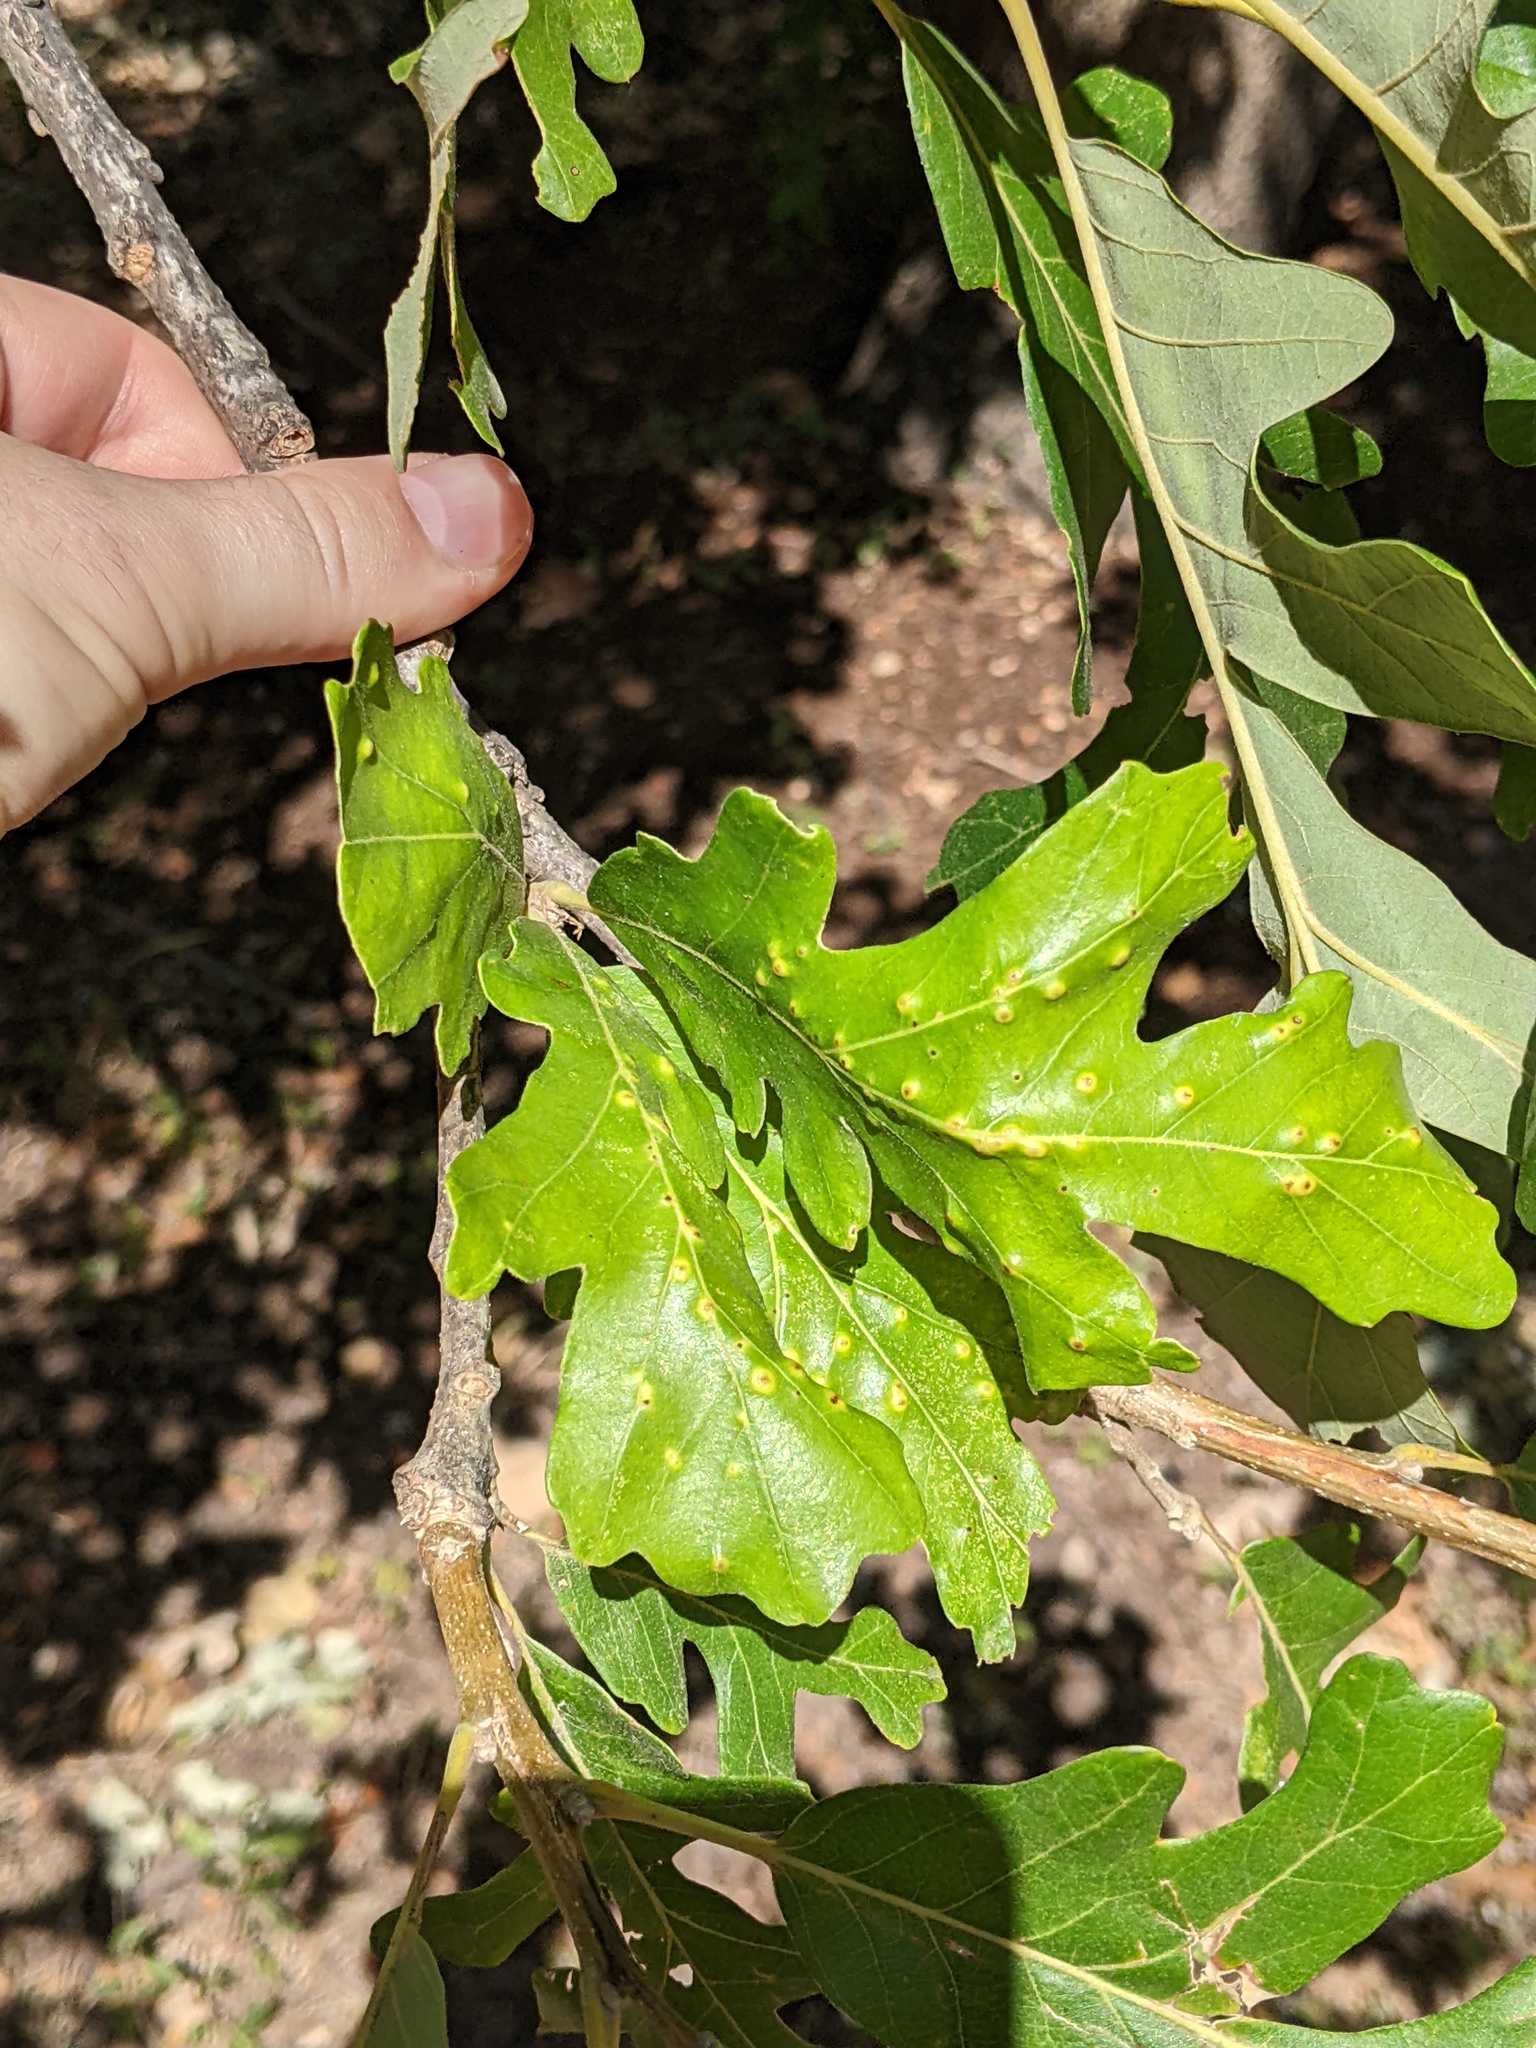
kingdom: Animalia
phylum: Arthropoda
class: Insecta
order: Hymenoptera
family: Cynipidae
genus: Neuroterus
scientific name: Neuroterus quercusverrucarum
